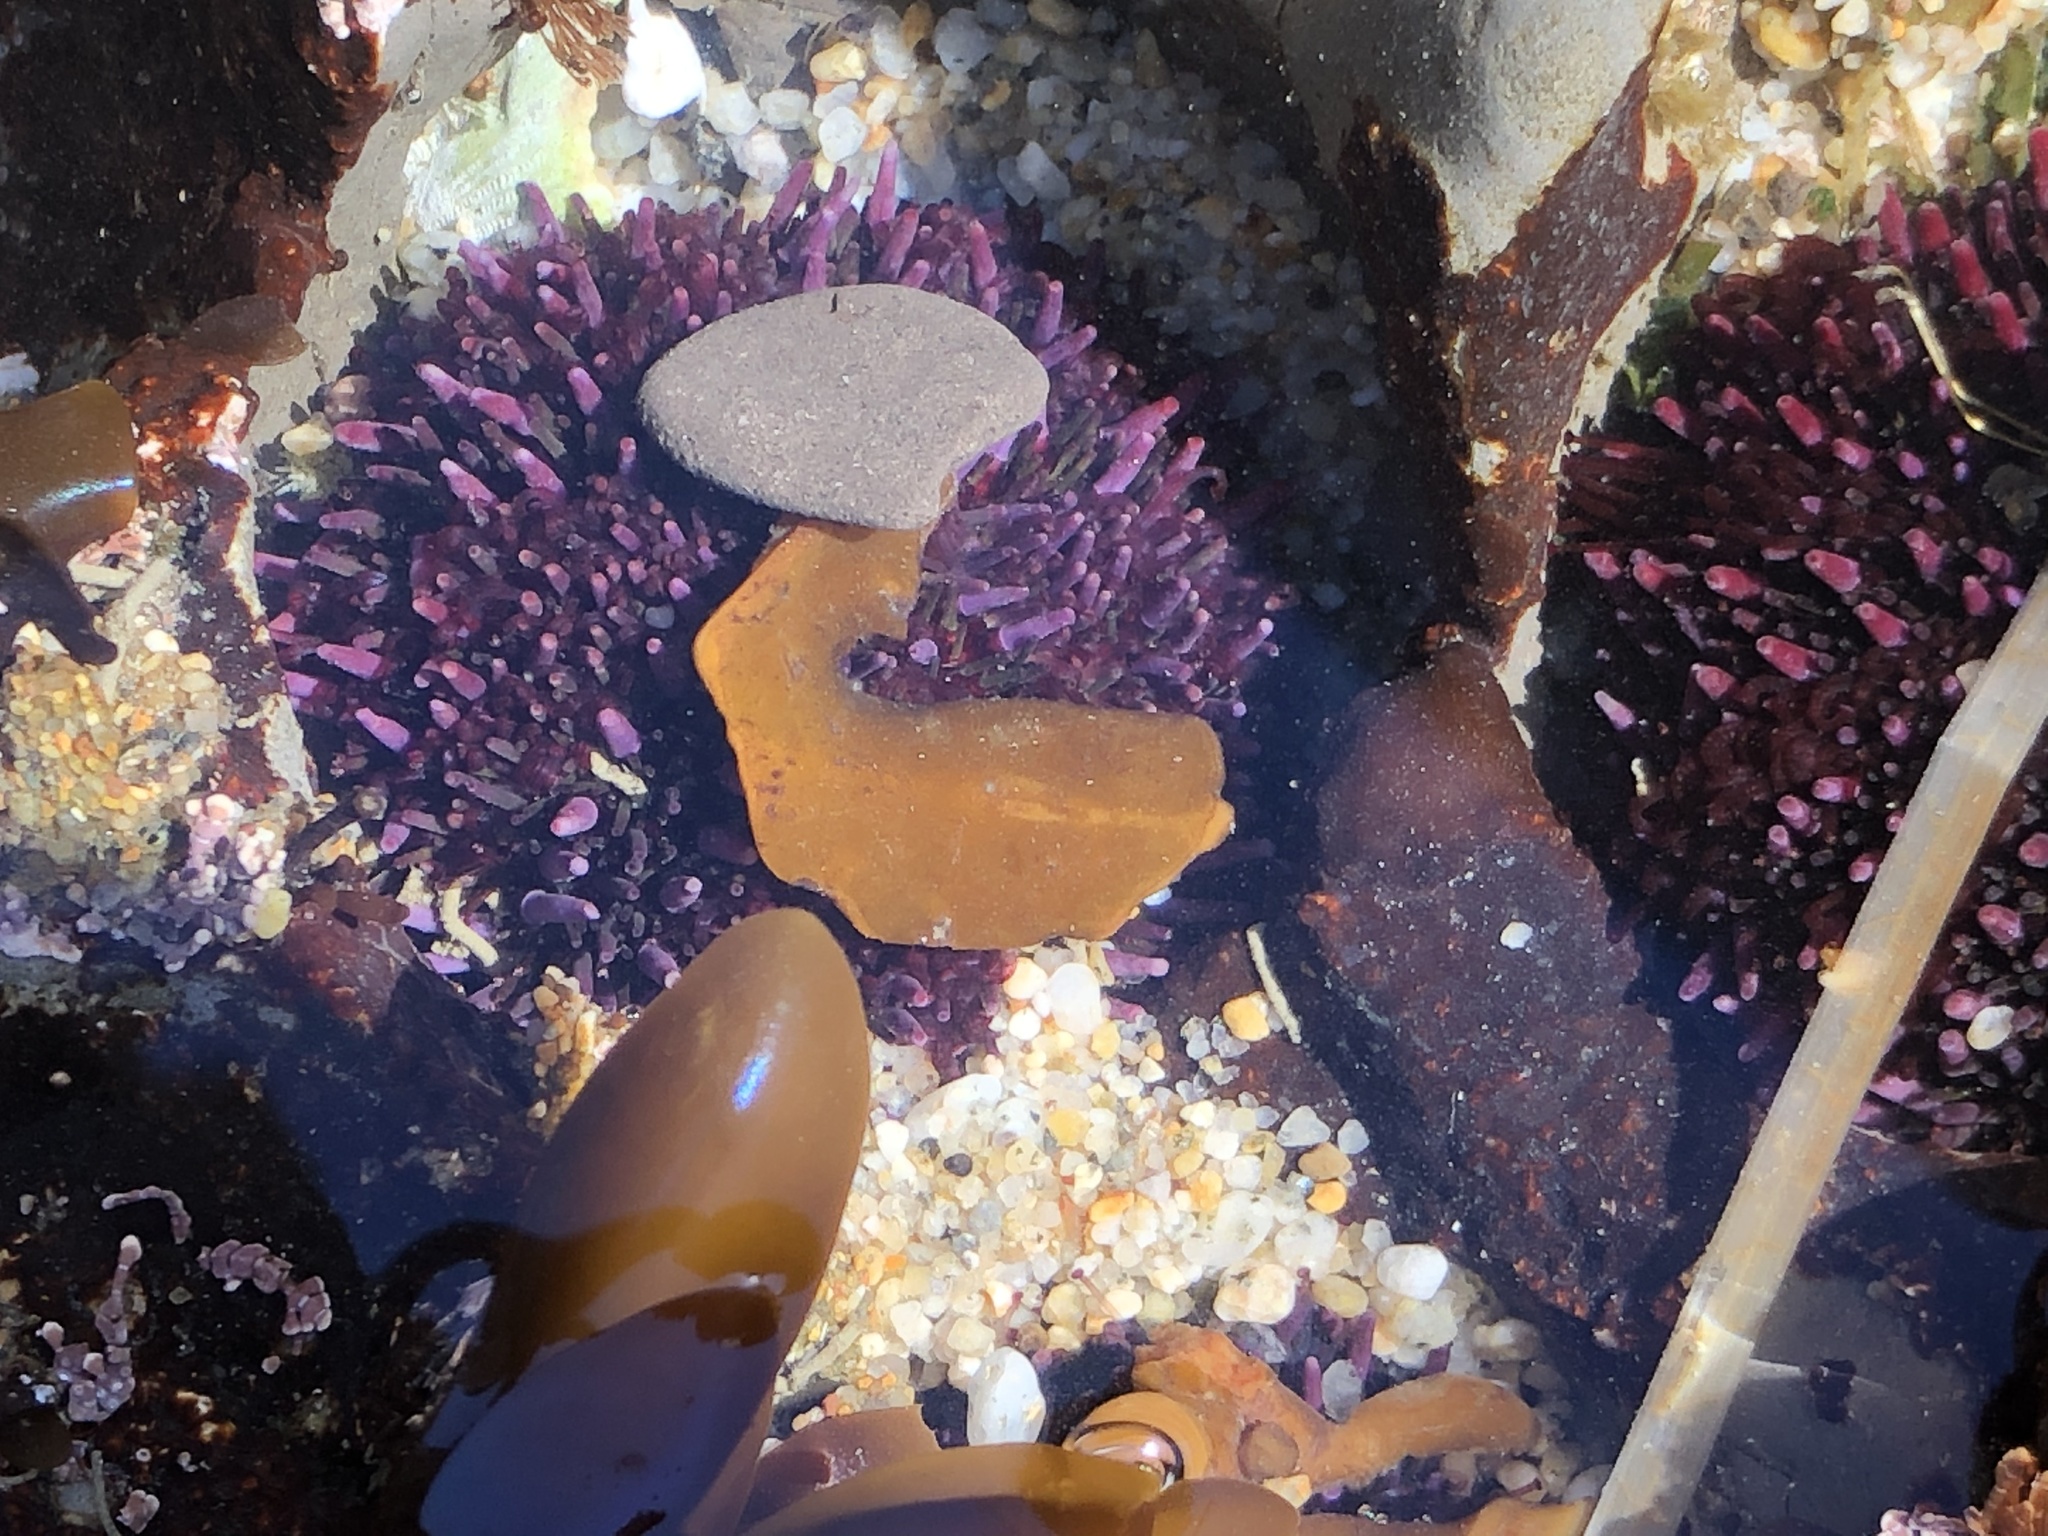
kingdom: Animalia
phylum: Echinodermata
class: Echinoidea
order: Camarodonta
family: Strongylocentrotidae
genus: Strongylocentrotus
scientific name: Strongylocentrotus purpuratus
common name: Purple sea urchin
